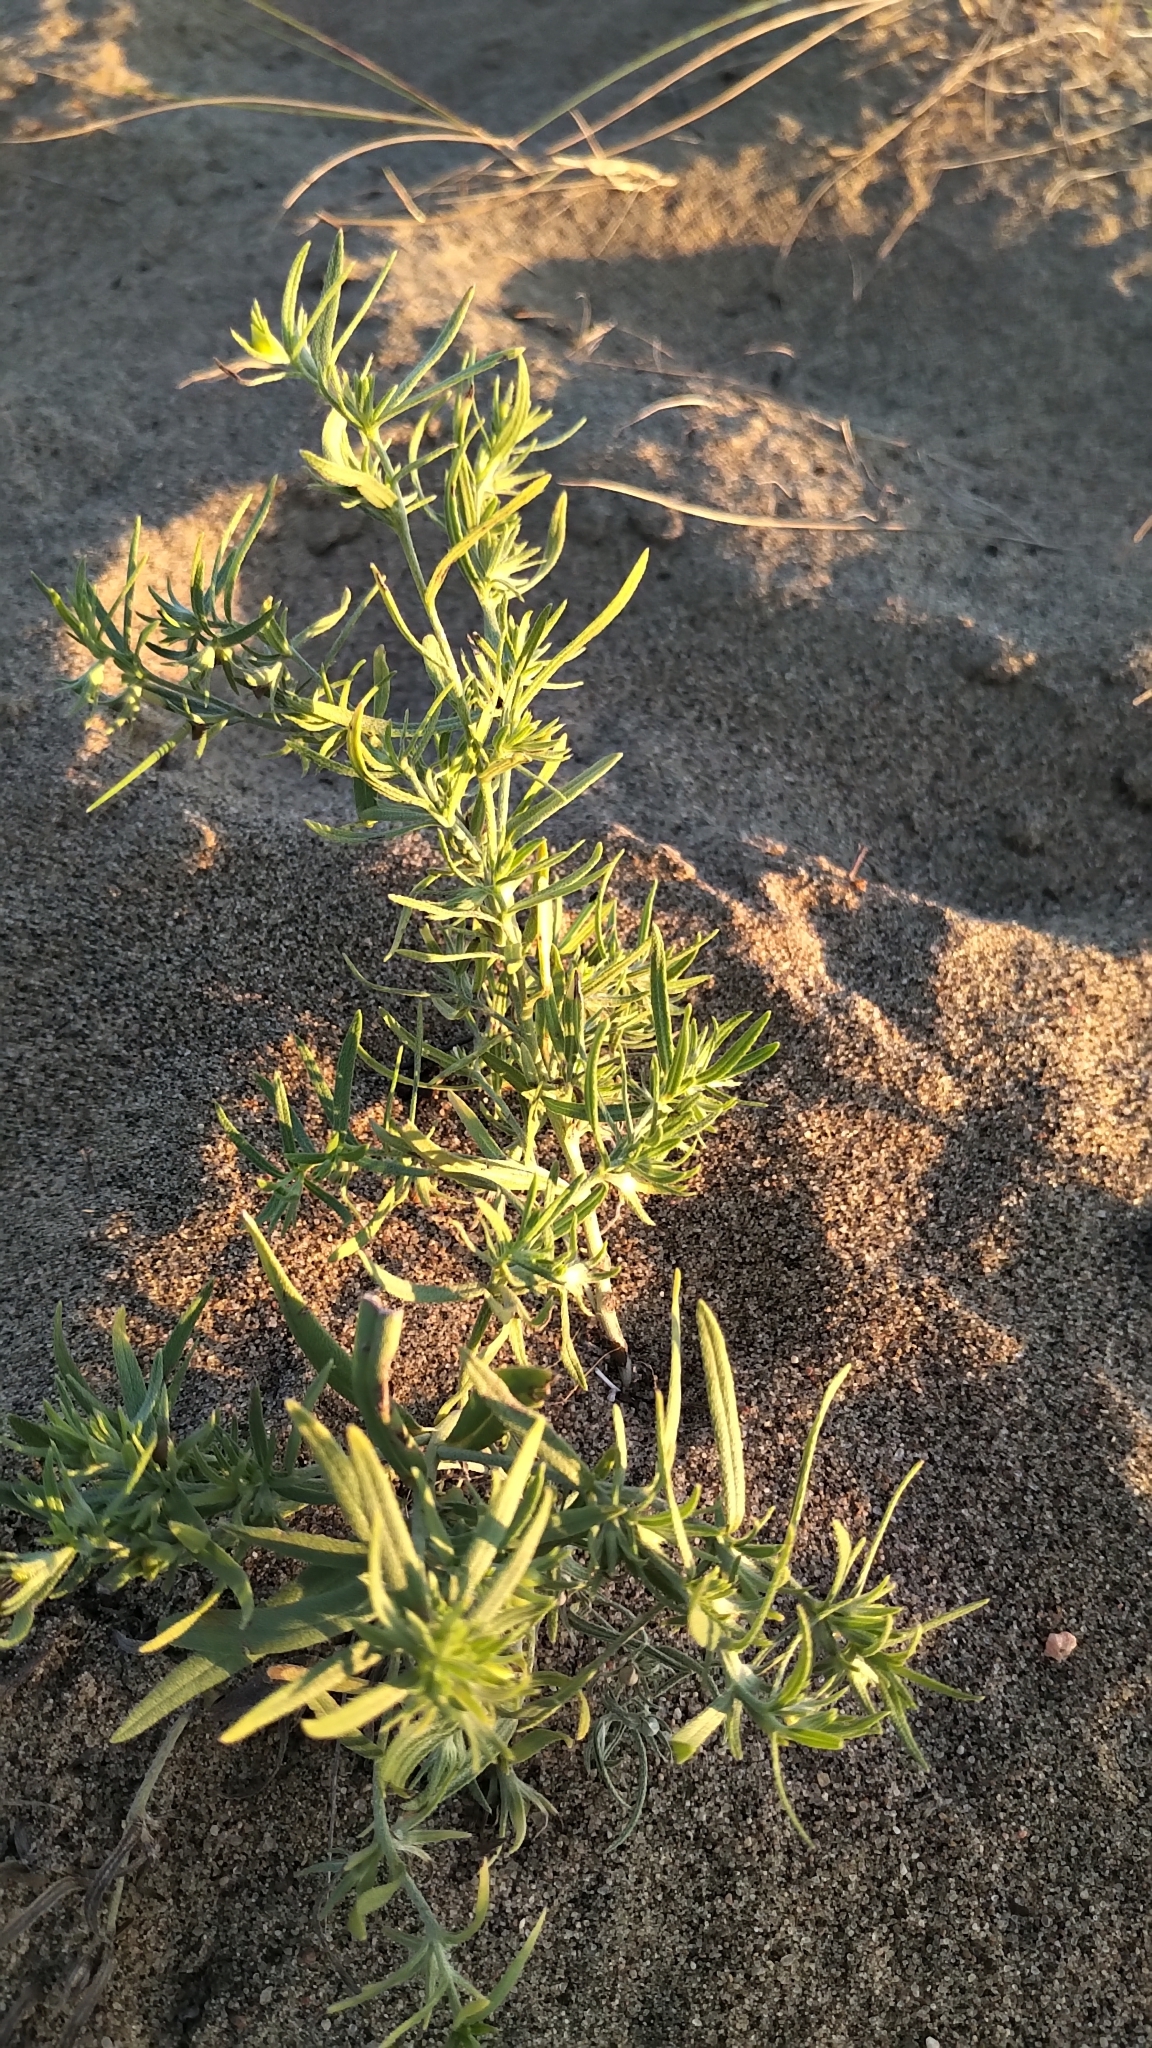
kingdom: Plantae
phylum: Tracheophyta
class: Magnoliopsida
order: Boraginales
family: Boraginaceae
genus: Lithospermum
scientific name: Lithospermum incisum
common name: Fringed gromwell
